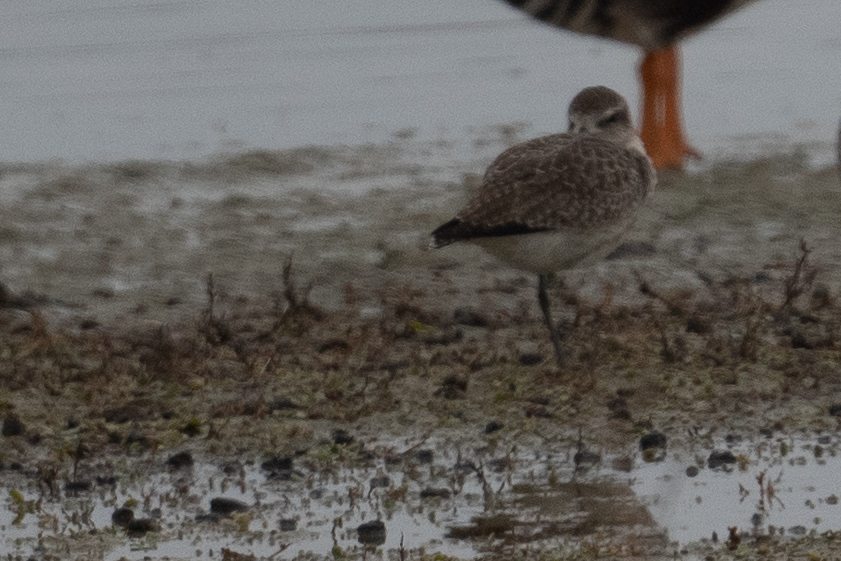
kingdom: Animalia
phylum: Chordata
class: Aves
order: Charadriiformes
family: Charadriidae
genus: Pluvialis
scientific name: Pluvialis squatarola
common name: Grey plover
